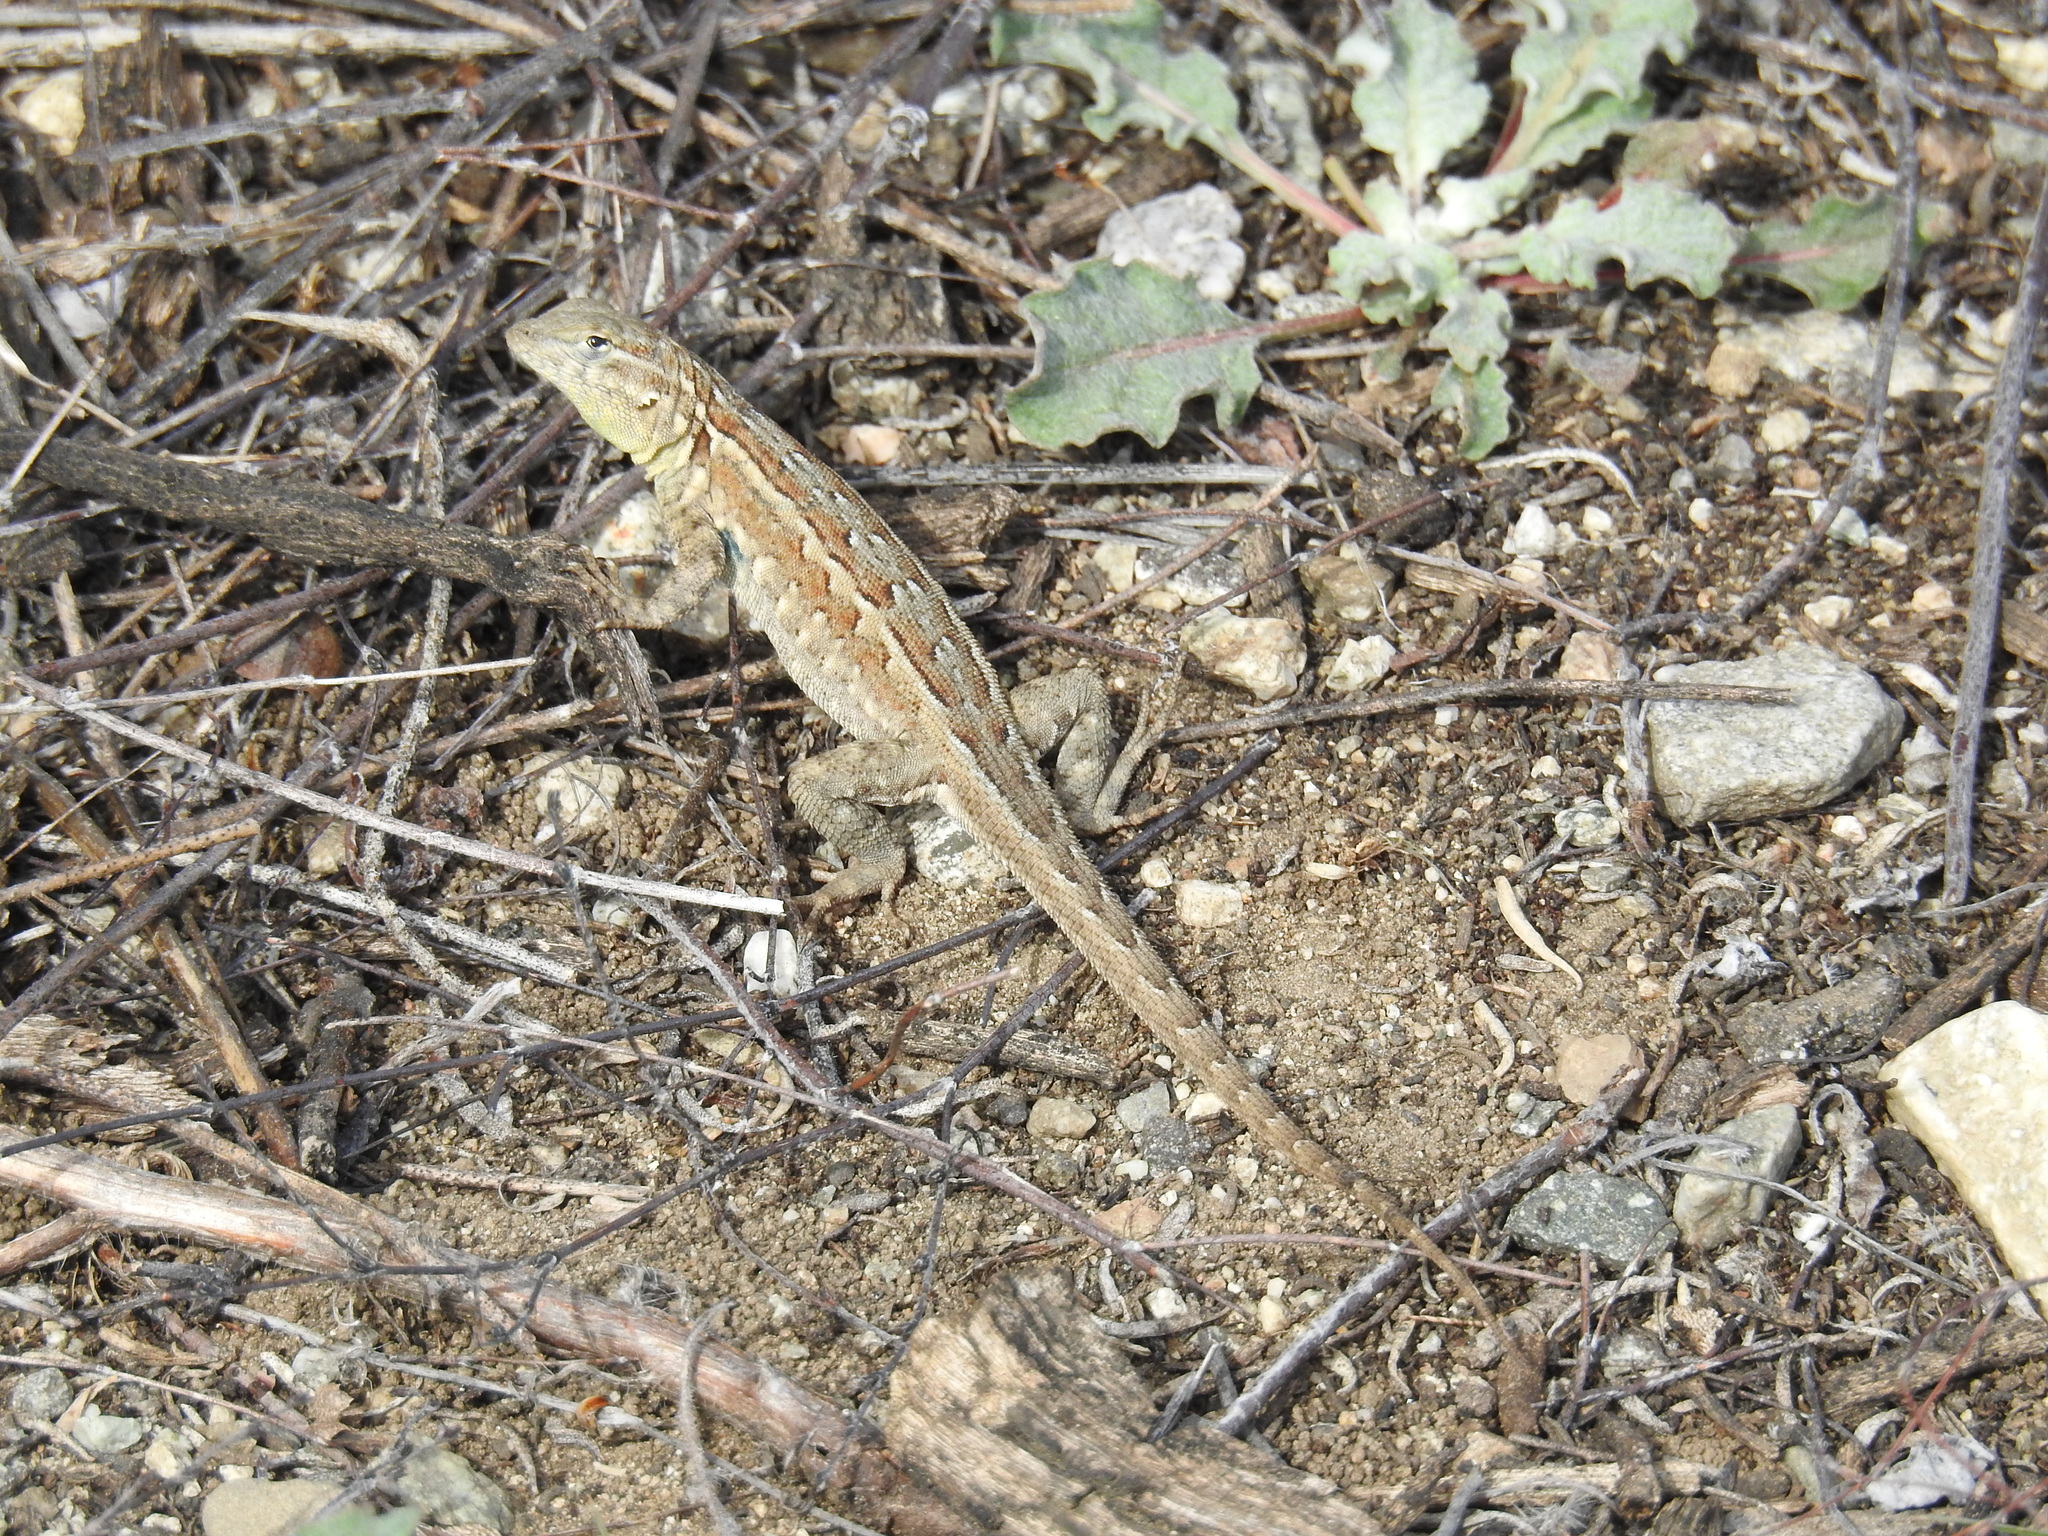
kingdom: Animalia
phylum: Chordata
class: Squamata
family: Phrynosomatidae
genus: Uta
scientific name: Uta stansburiana
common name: Side-blotched lizard
